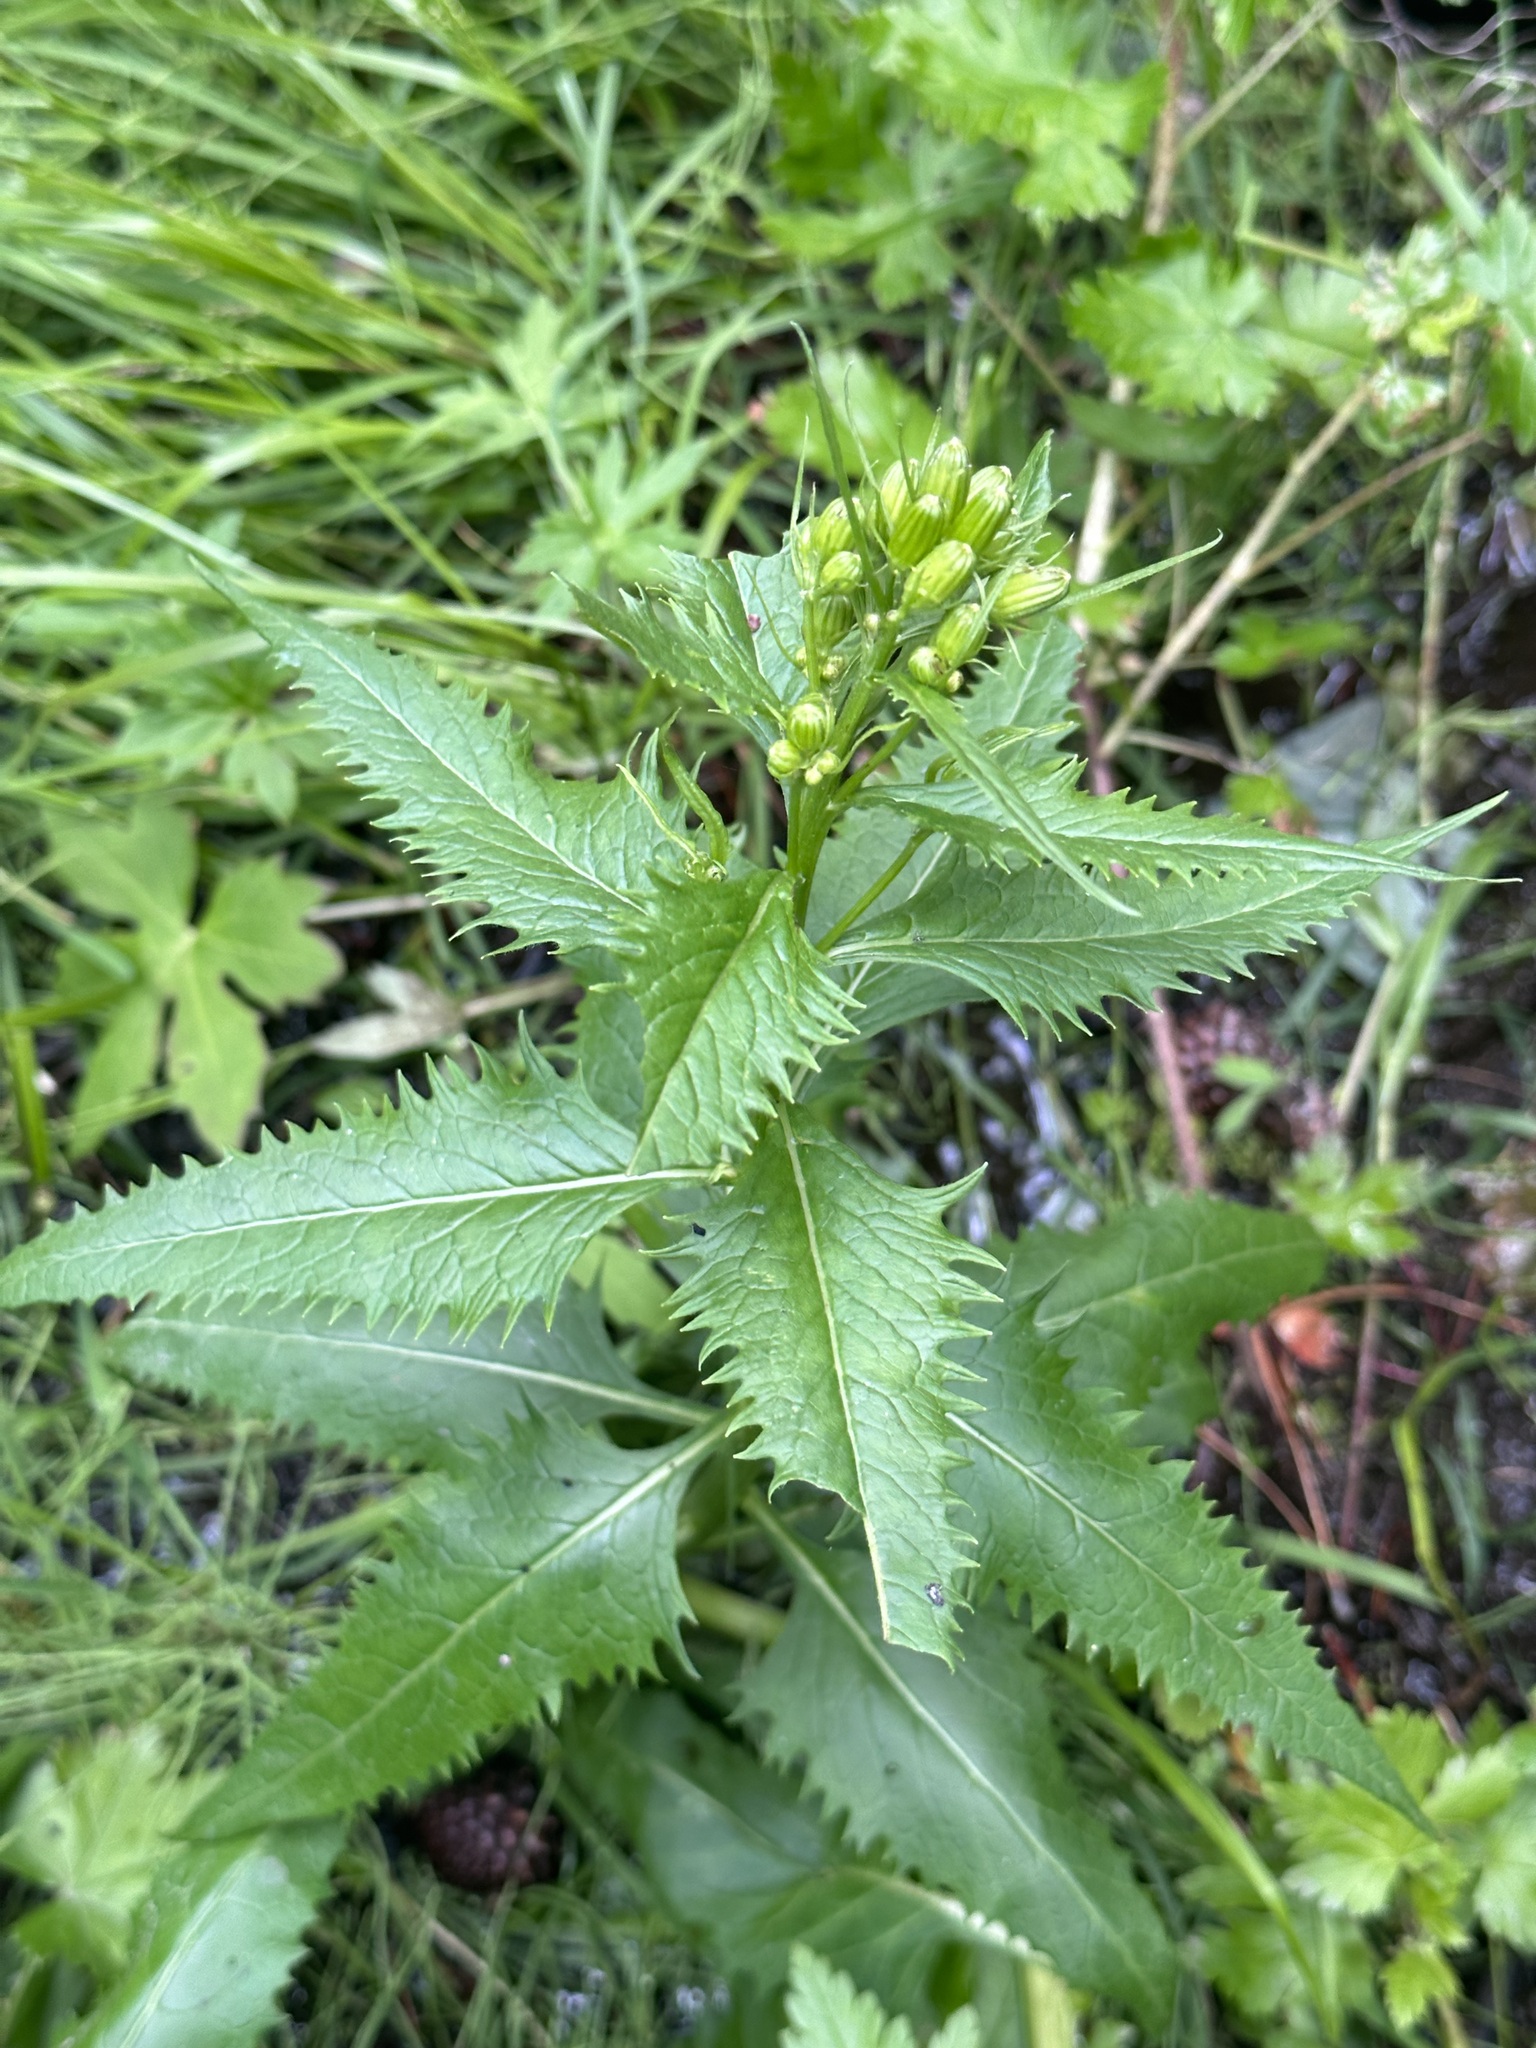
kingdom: Plantae
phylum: Tracheophyta
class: Magnoliopsida
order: Asterales
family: Asteraceae
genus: Senecio
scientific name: Senecio triangularis
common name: Arrowleaf butterweed
